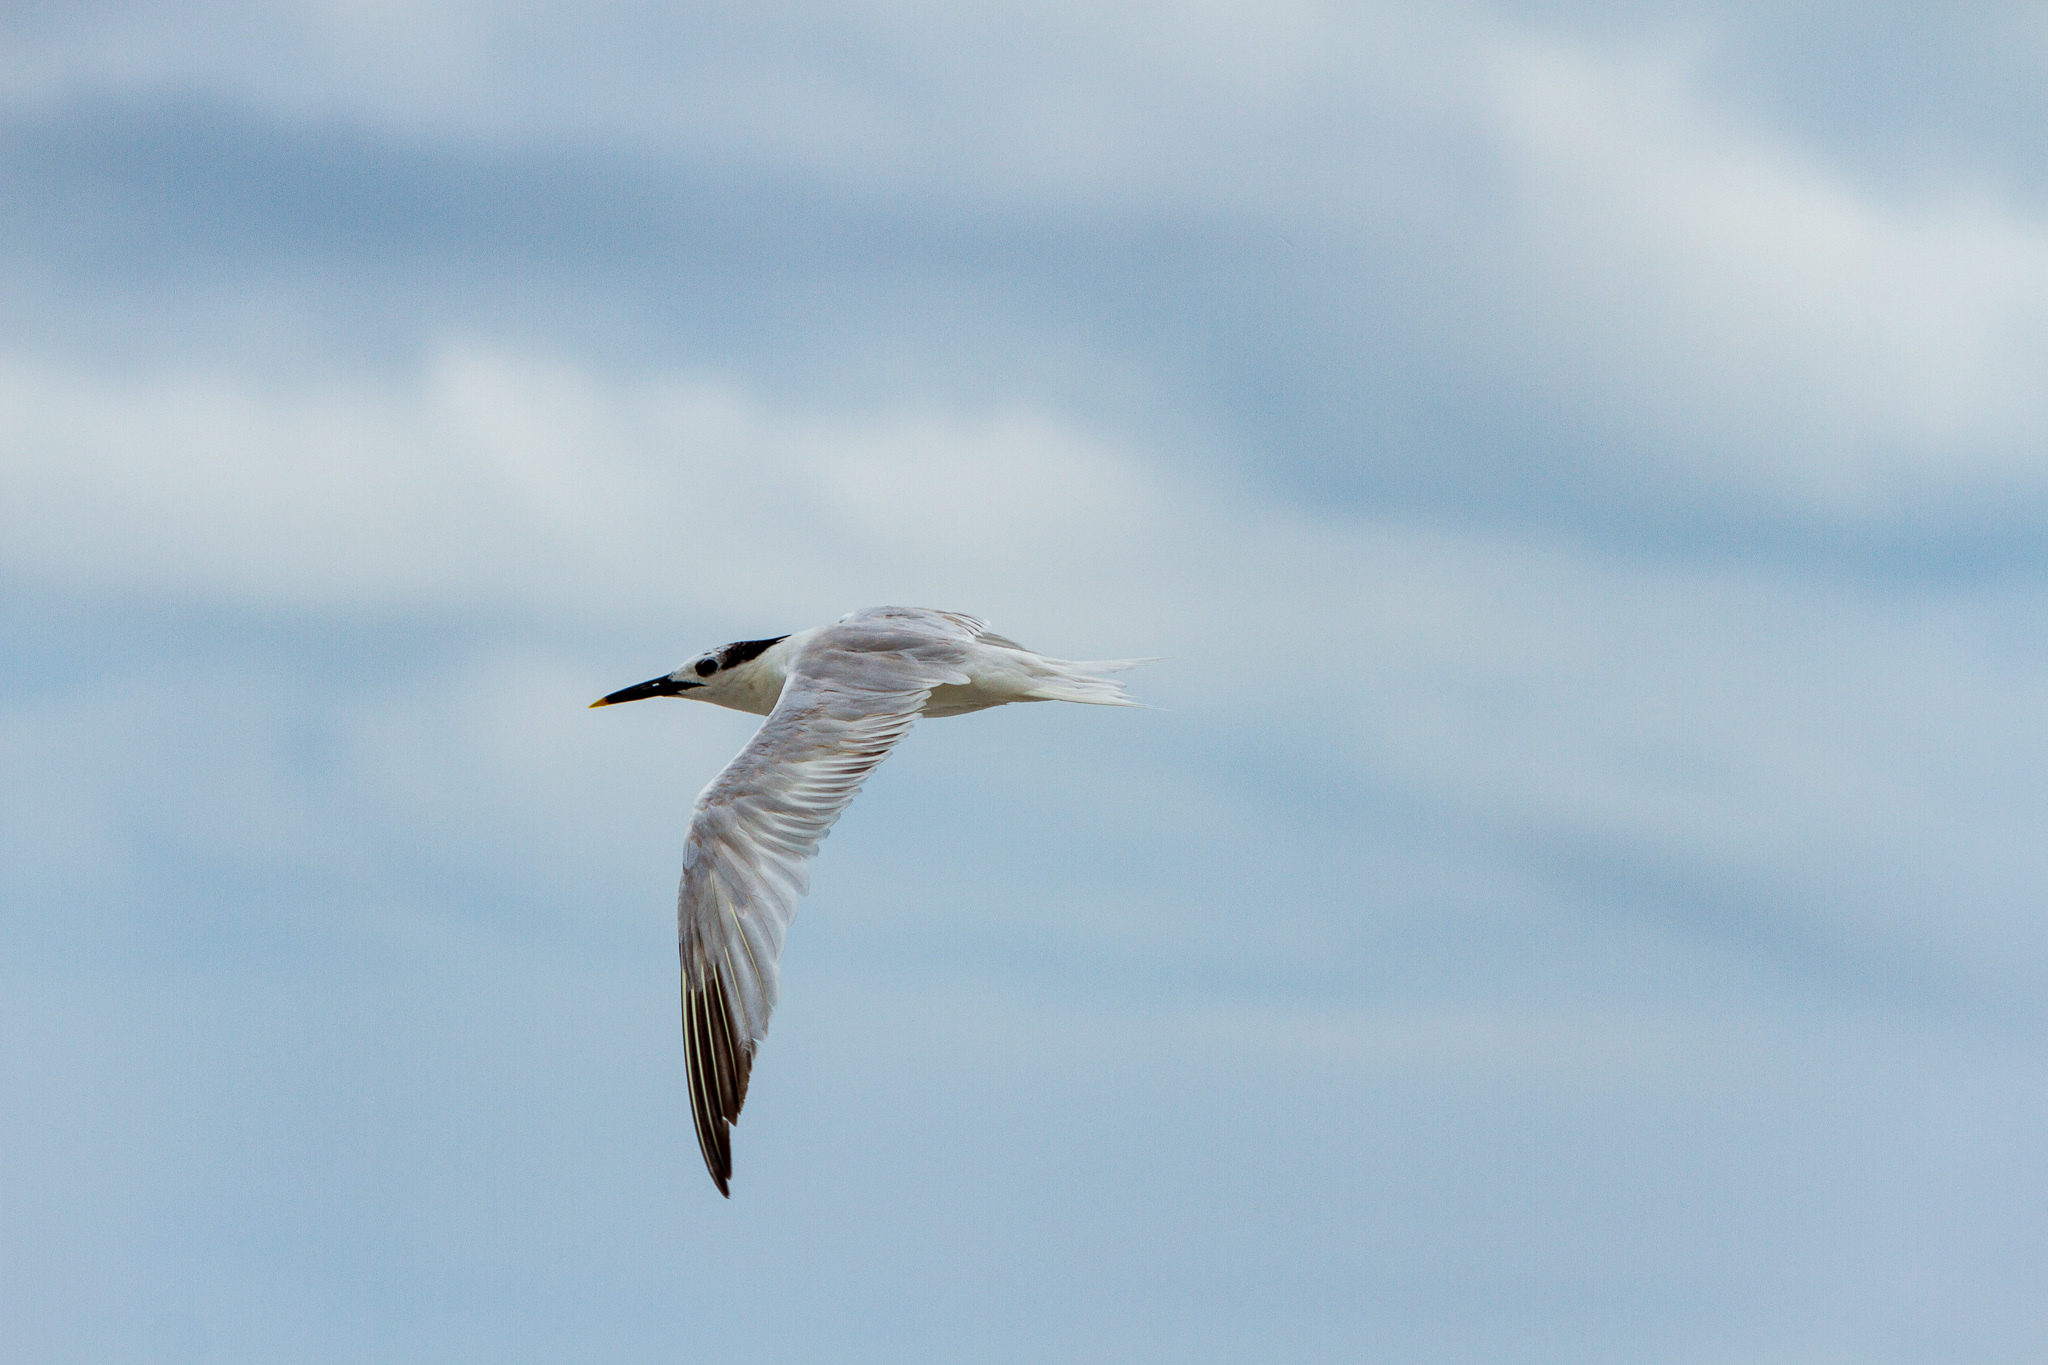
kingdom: Animalia
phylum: Chordata
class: Aves
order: Charadriiformes
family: Laridae
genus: Thalasseus
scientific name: Thalasseus sandvicensis
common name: Sandwich tern
